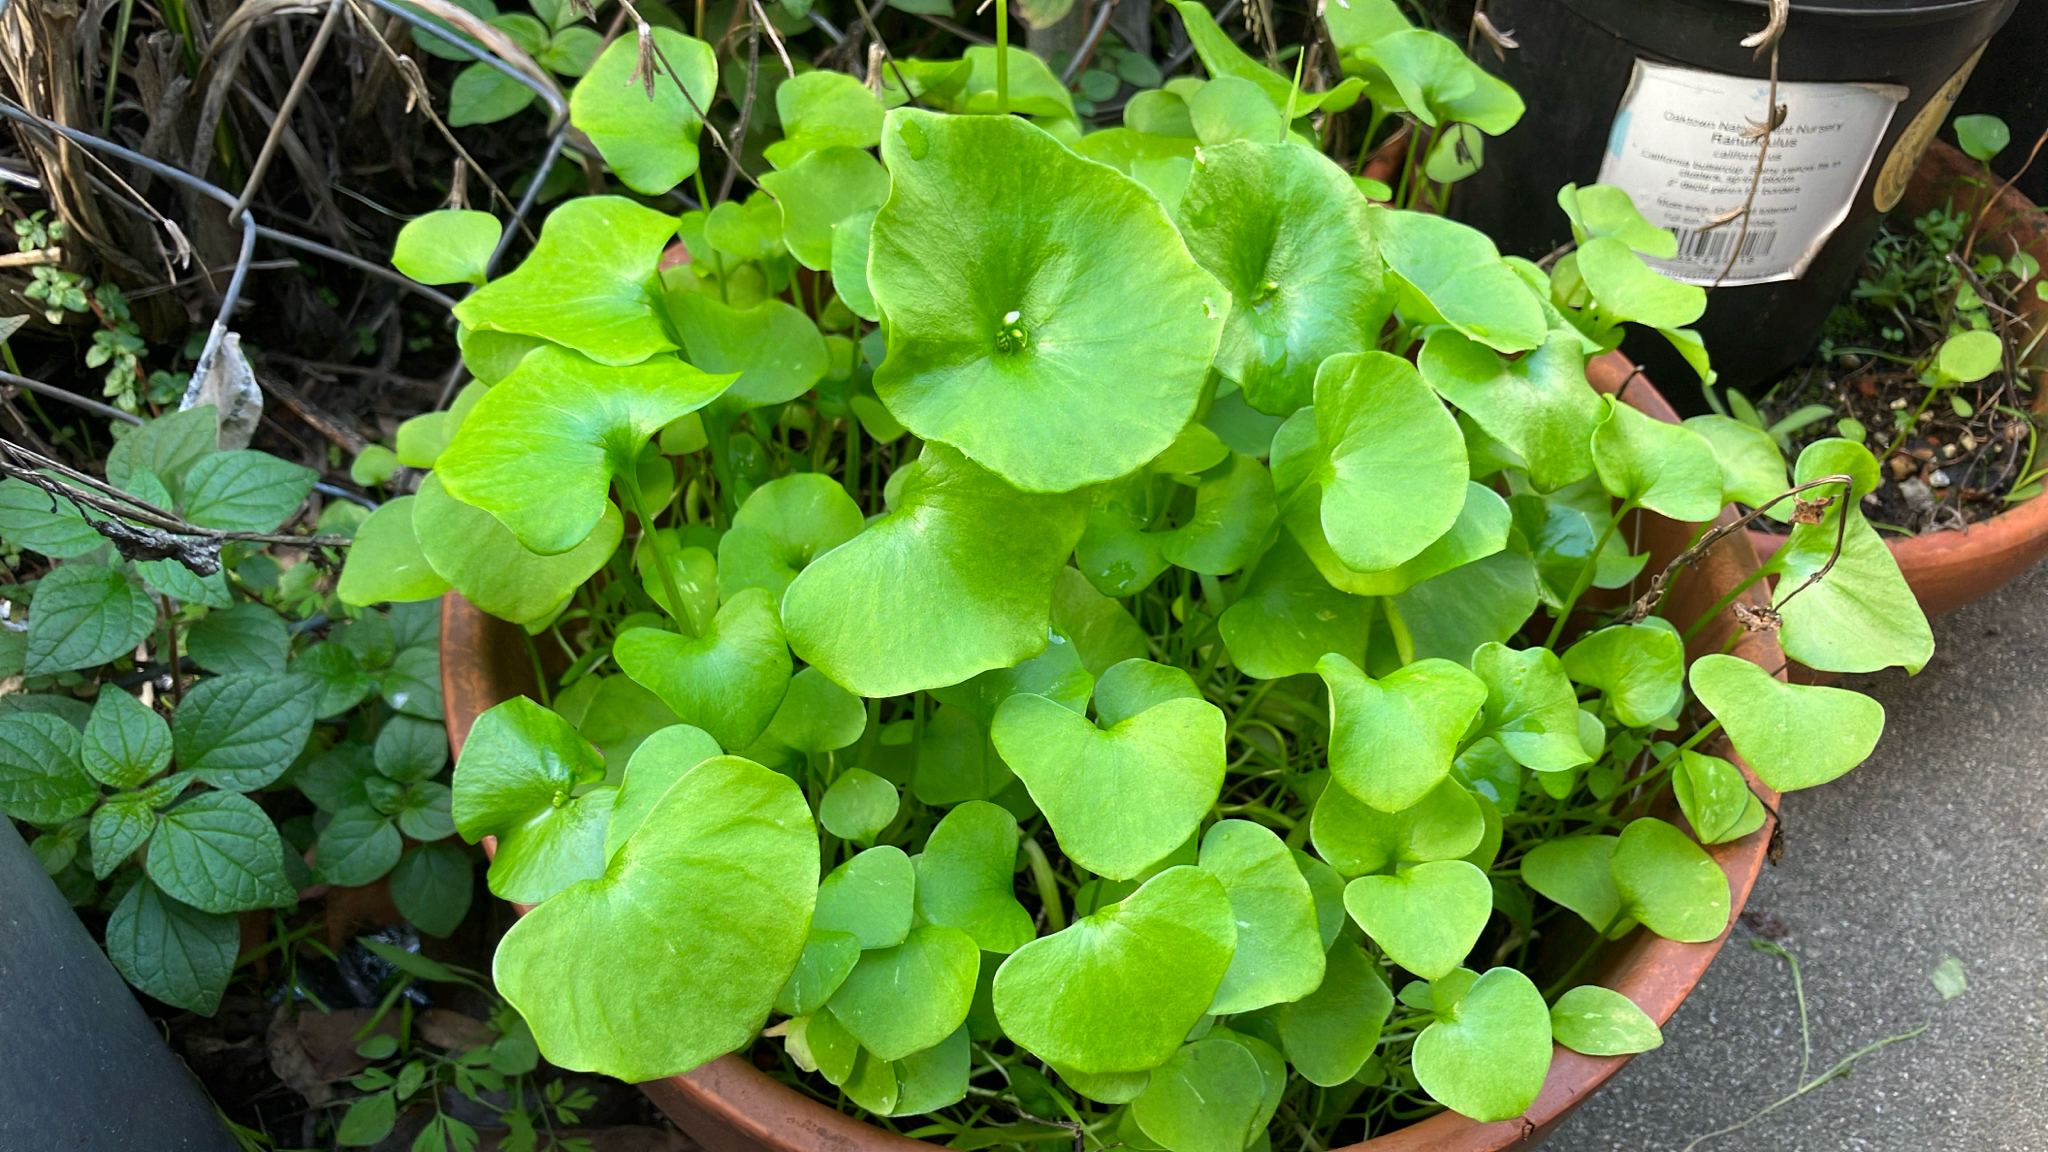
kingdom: Plantae
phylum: Tracheophyta
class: Magnoliopsida
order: Caryophyllales
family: Montiaceae
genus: Claytonia
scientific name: Claytonia perfoliata
